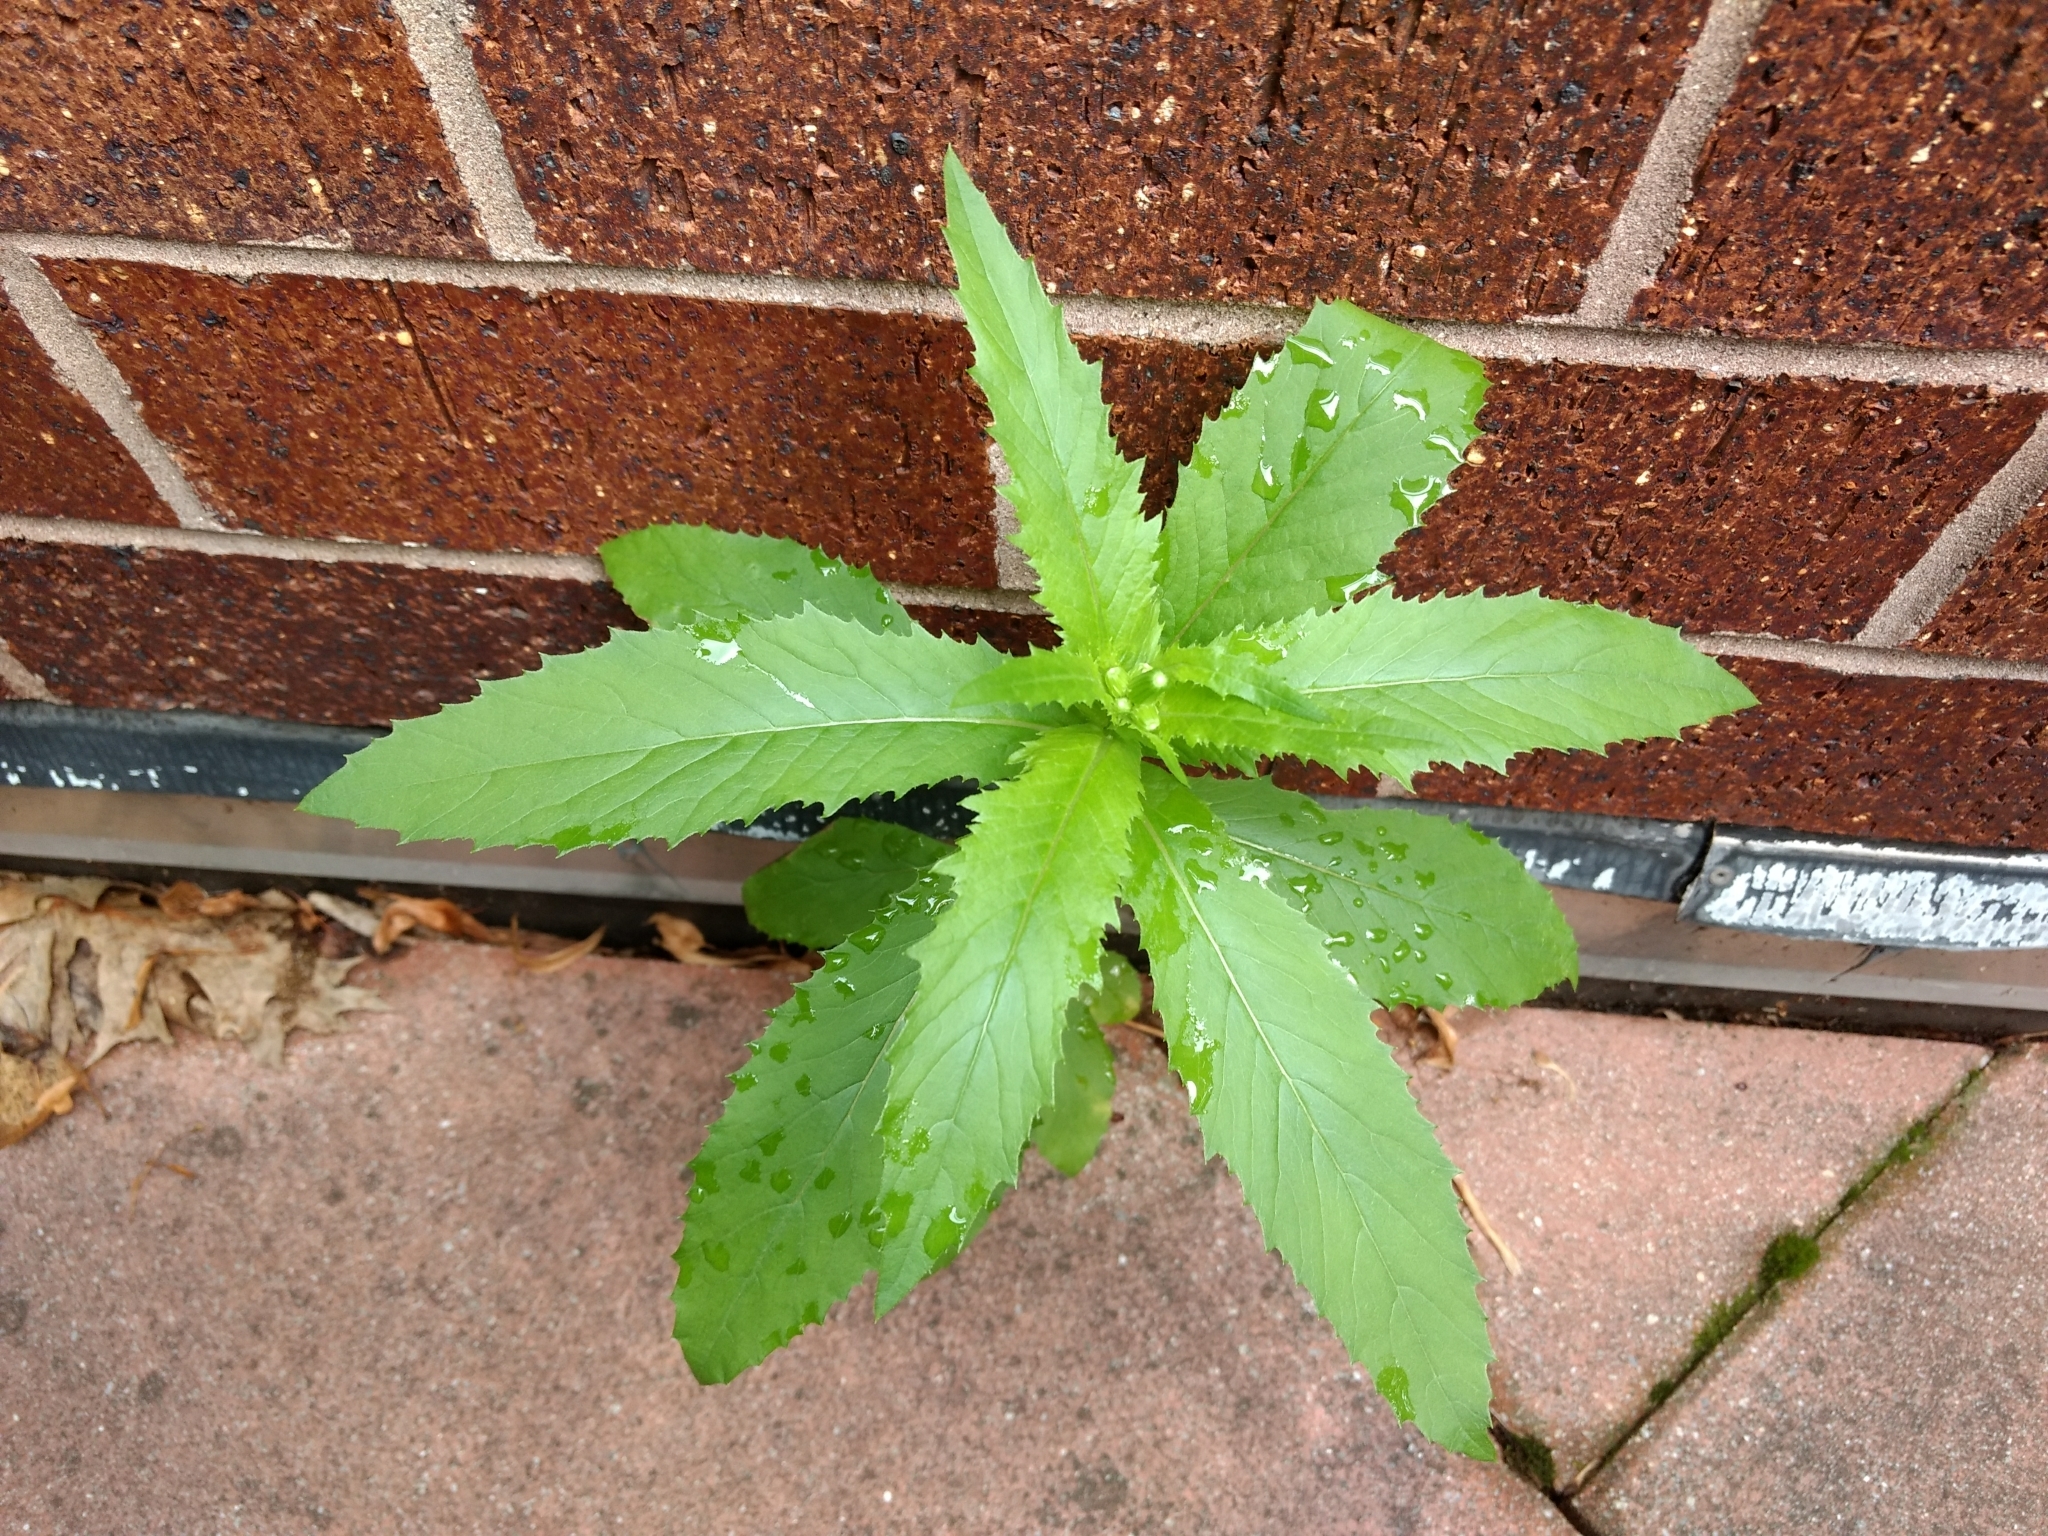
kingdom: Plantae
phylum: Tracheophyta
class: Magnoliopsida
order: Asterales
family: Asteraceae
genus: Erechtites
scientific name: Erechtites hieraciifolius
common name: American burnweed
